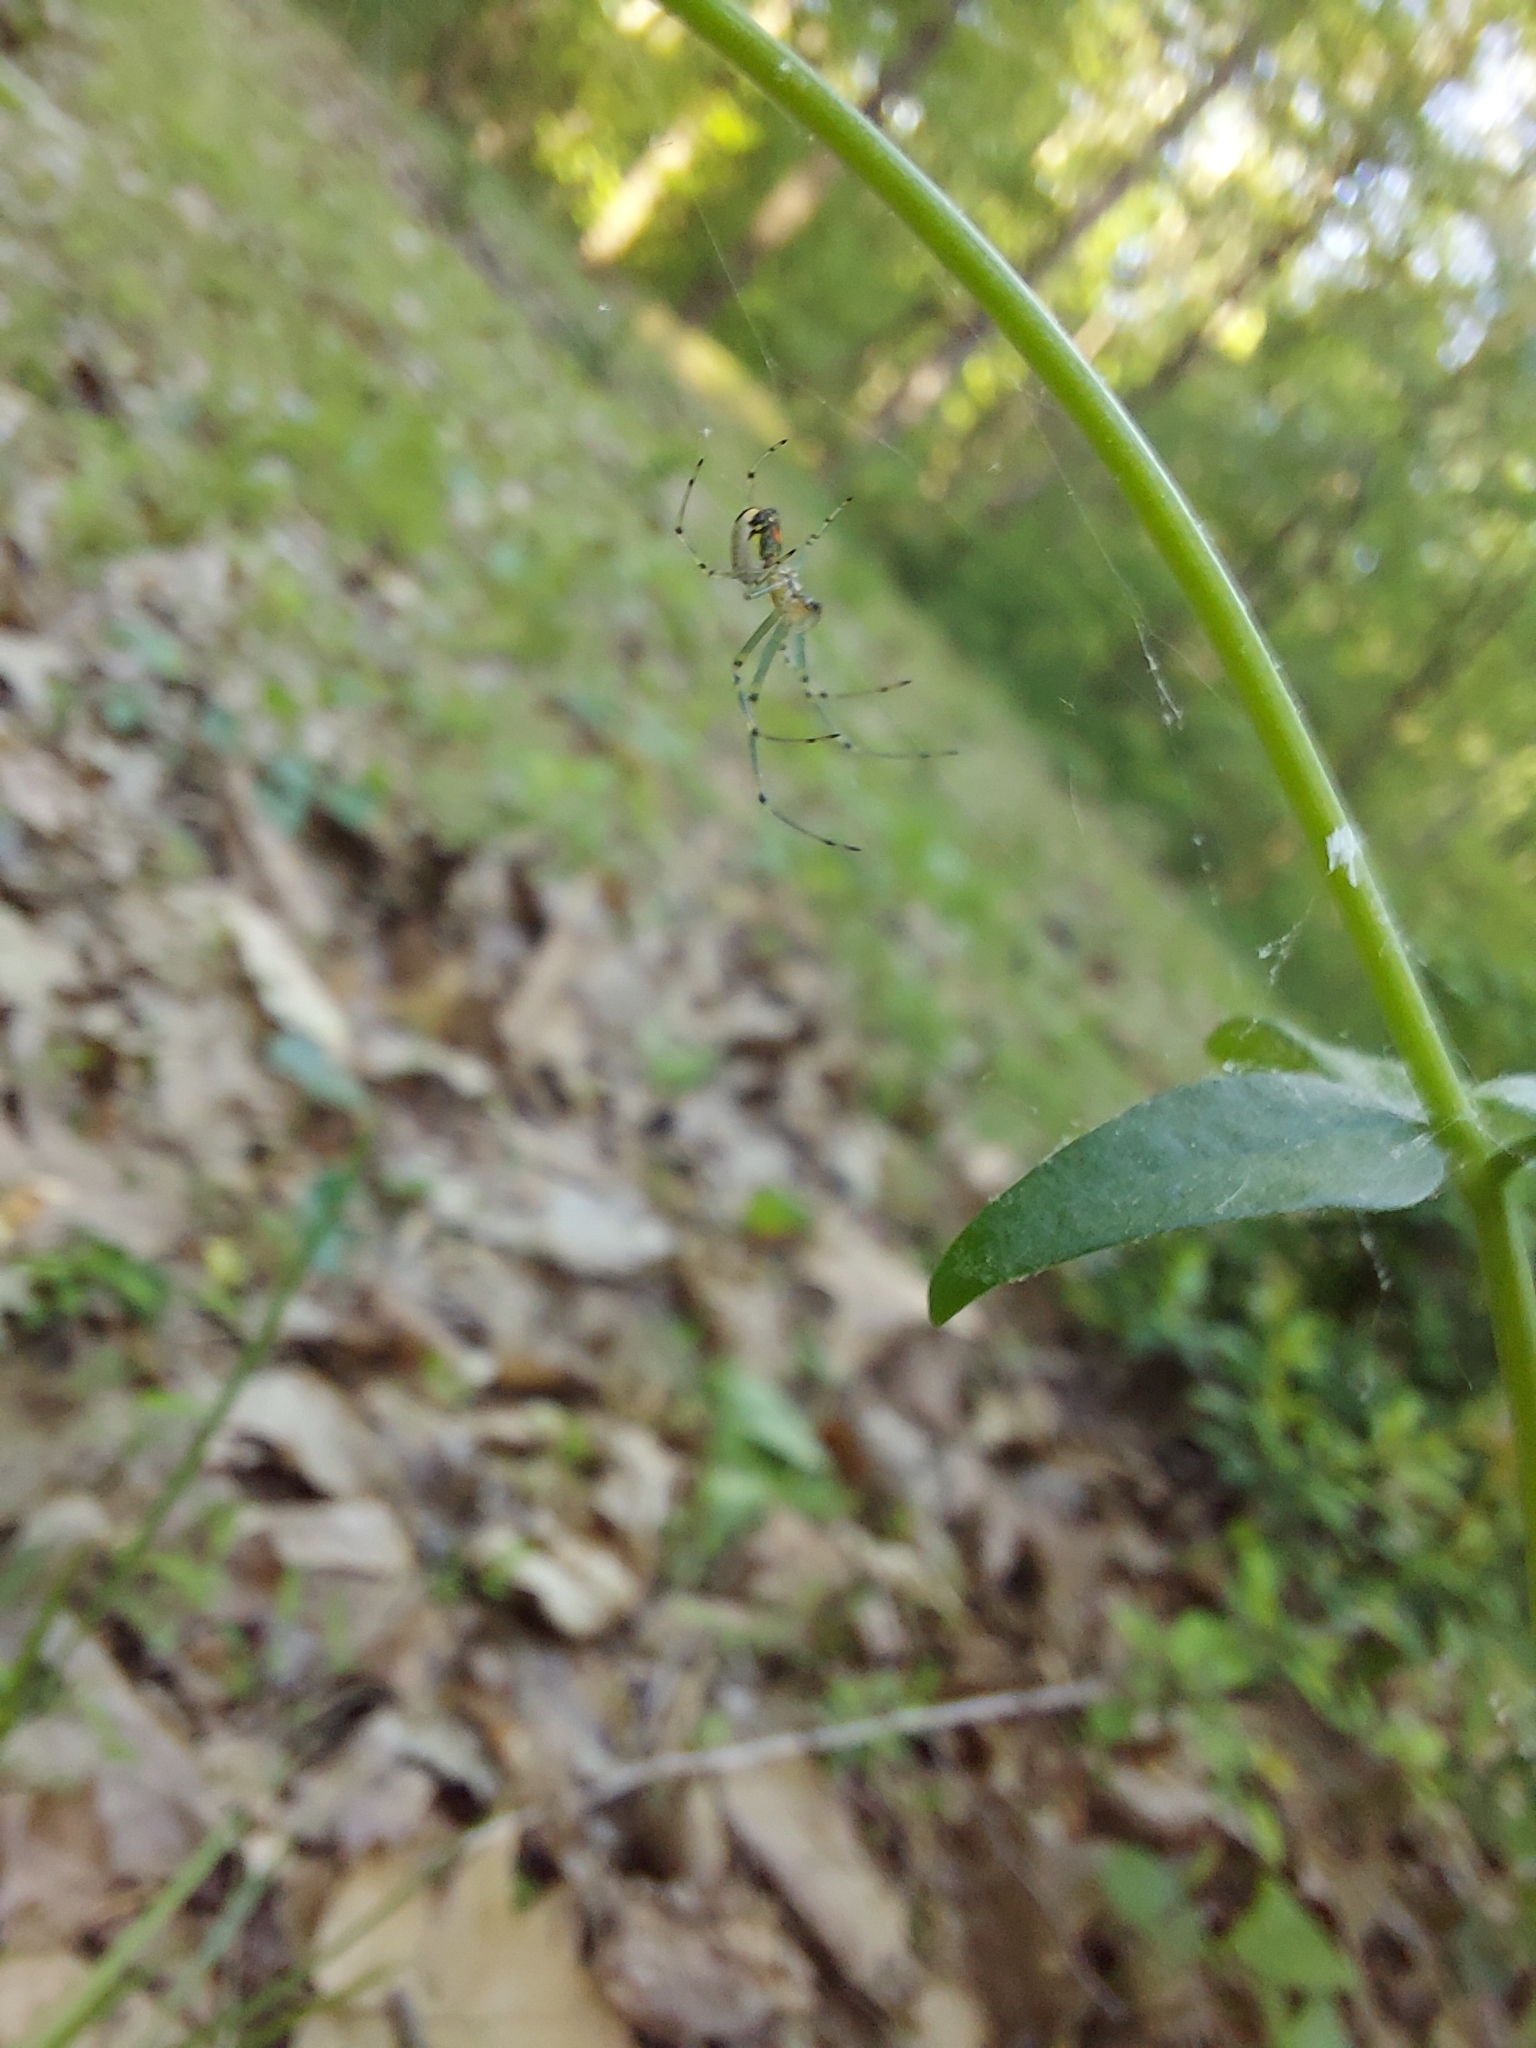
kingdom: Animalia
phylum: Arthropoda
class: Arachnida
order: Araneae
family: Tetragnathidae
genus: Leucauge
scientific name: Leucauge venusta
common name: Longjawed orb weavers
